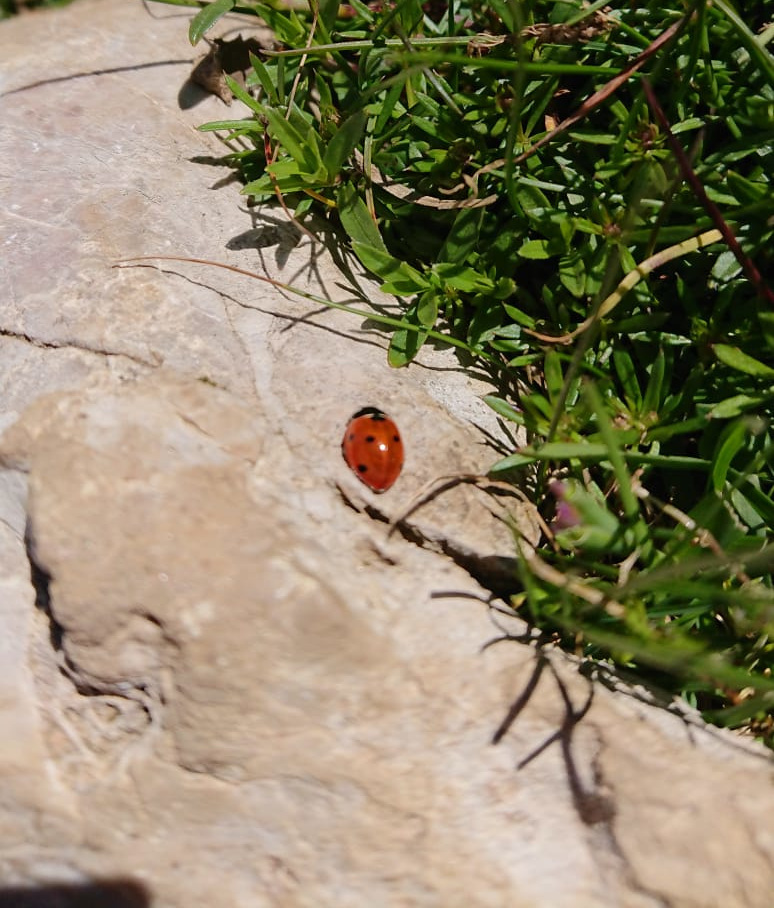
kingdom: Animalia
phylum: Arthropoda
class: Insecta
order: Coleoptera
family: Coccinellidae
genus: Coccinella
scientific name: Coccinella septempunctata
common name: Sevenspotted lady beetle
